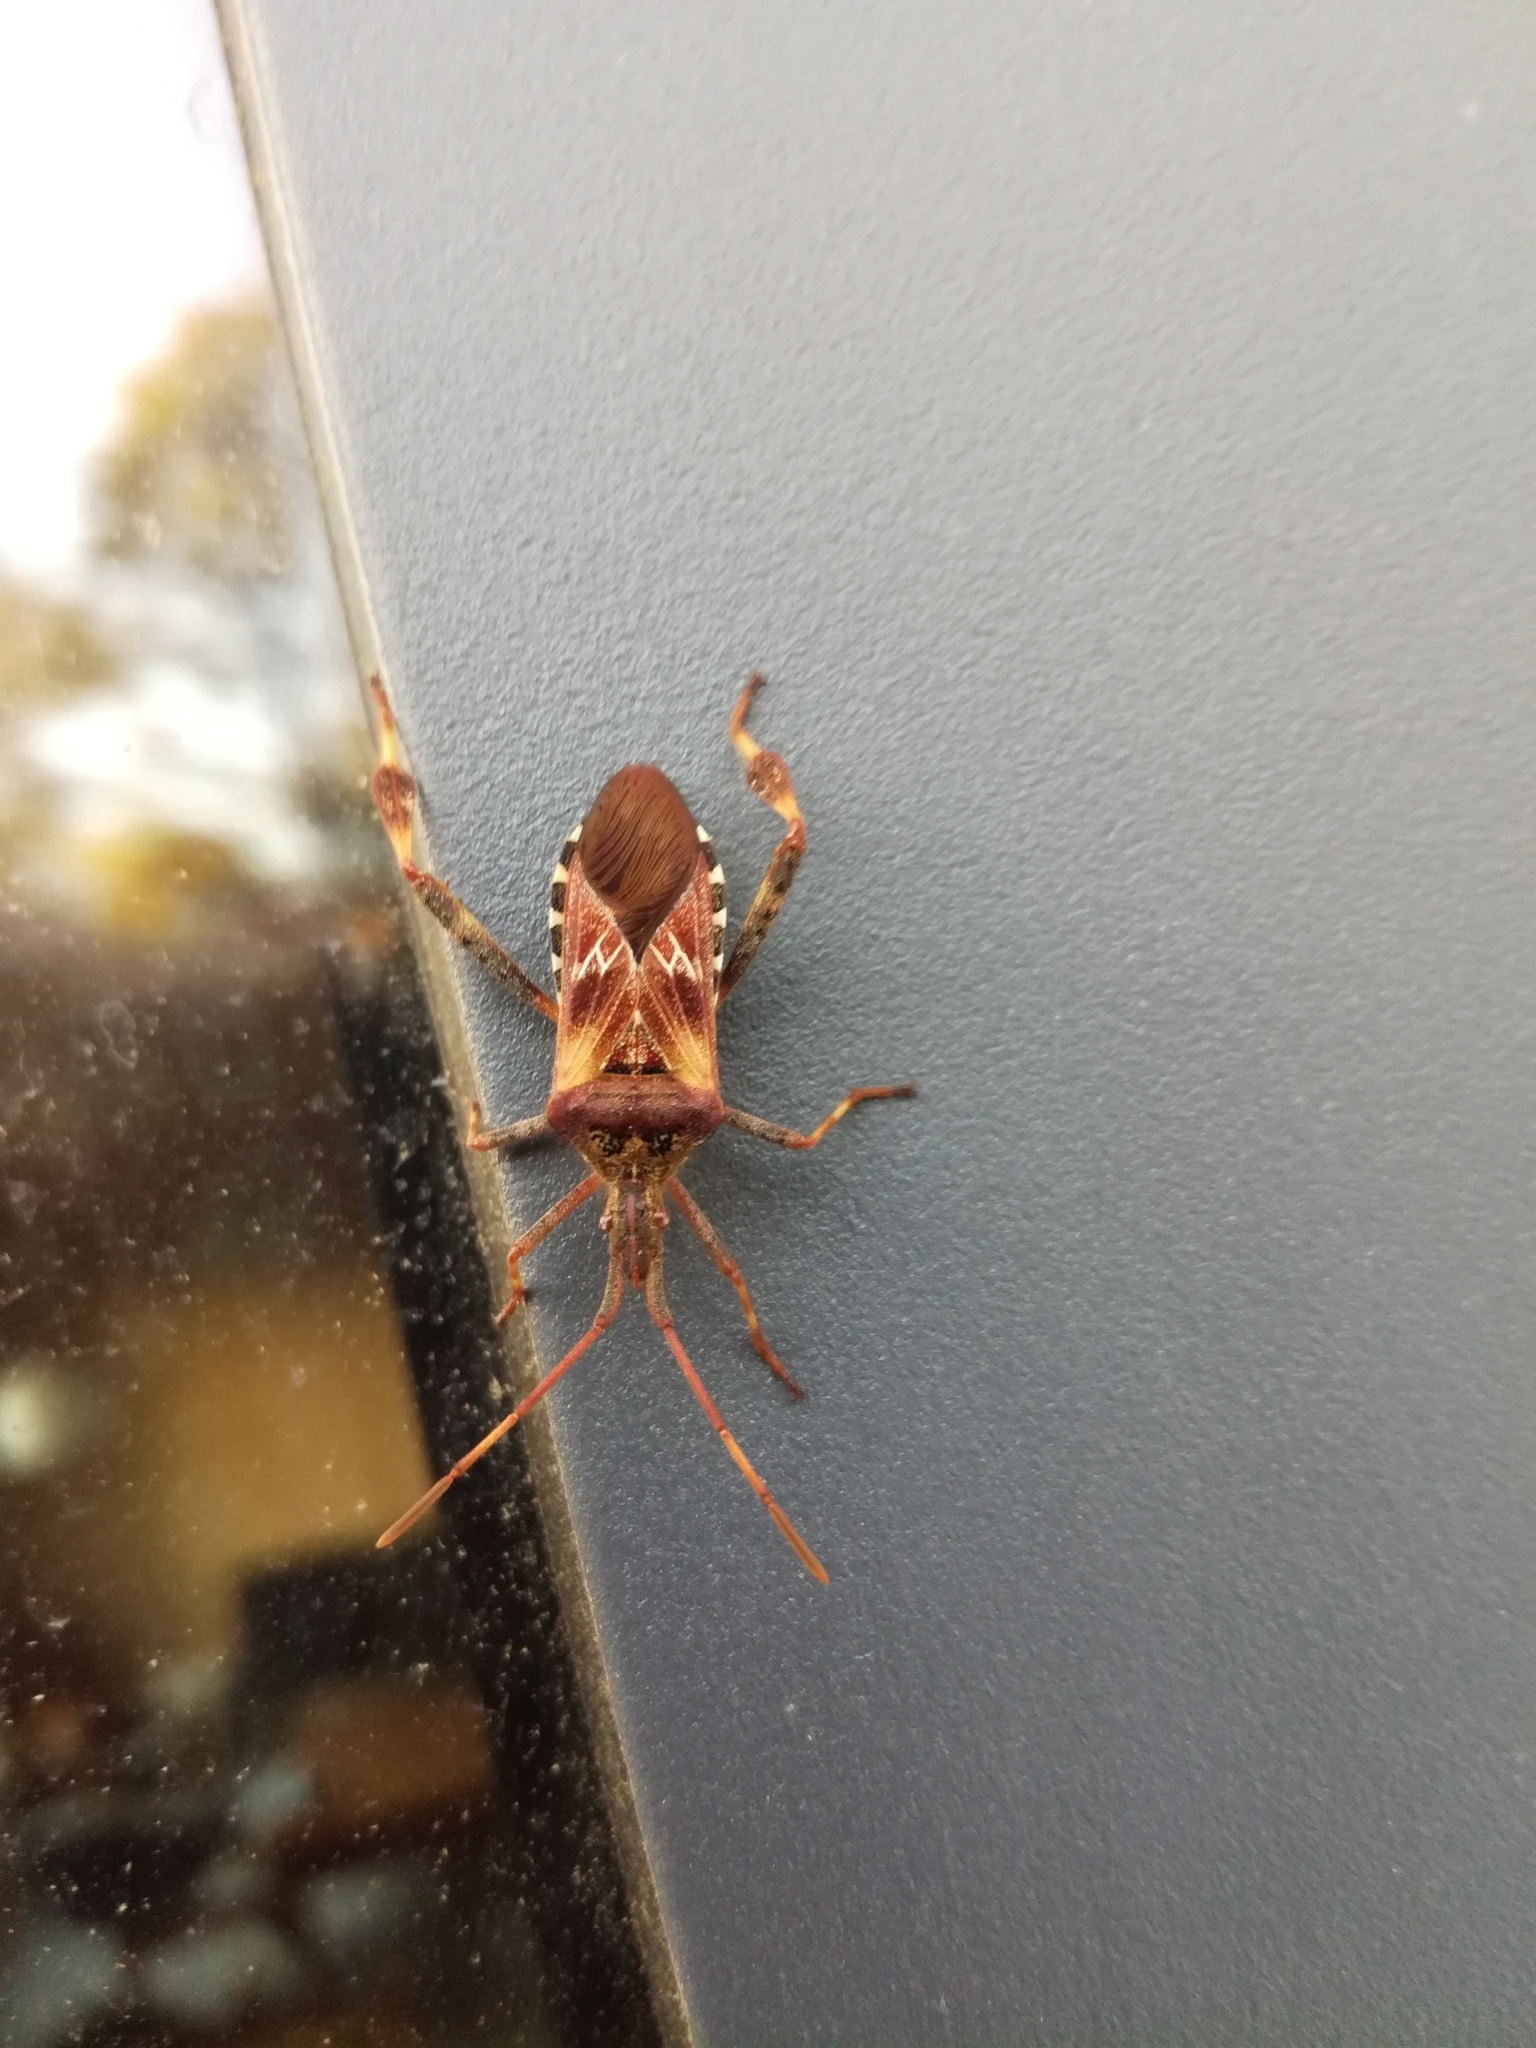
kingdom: Animalia
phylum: Arthropoda
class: Insecta
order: Hemiptera
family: Coreidae
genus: Leptoglossus
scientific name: Leptoglossus occidentalis
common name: Western conifer-seed bug
